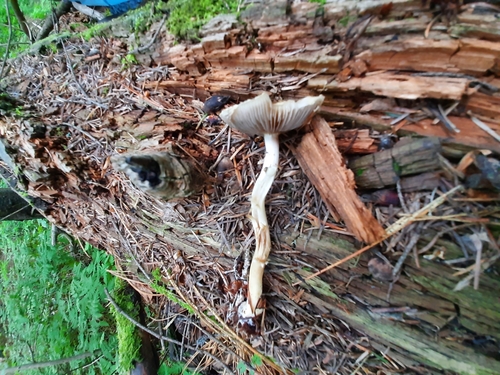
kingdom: Fungi
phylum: Basidiomycota
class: Agaricomycetes
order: Agaricales
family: Strophariaceae
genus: Agrocybe
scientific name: Agrocybe praecox
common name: Spring fieldcap
